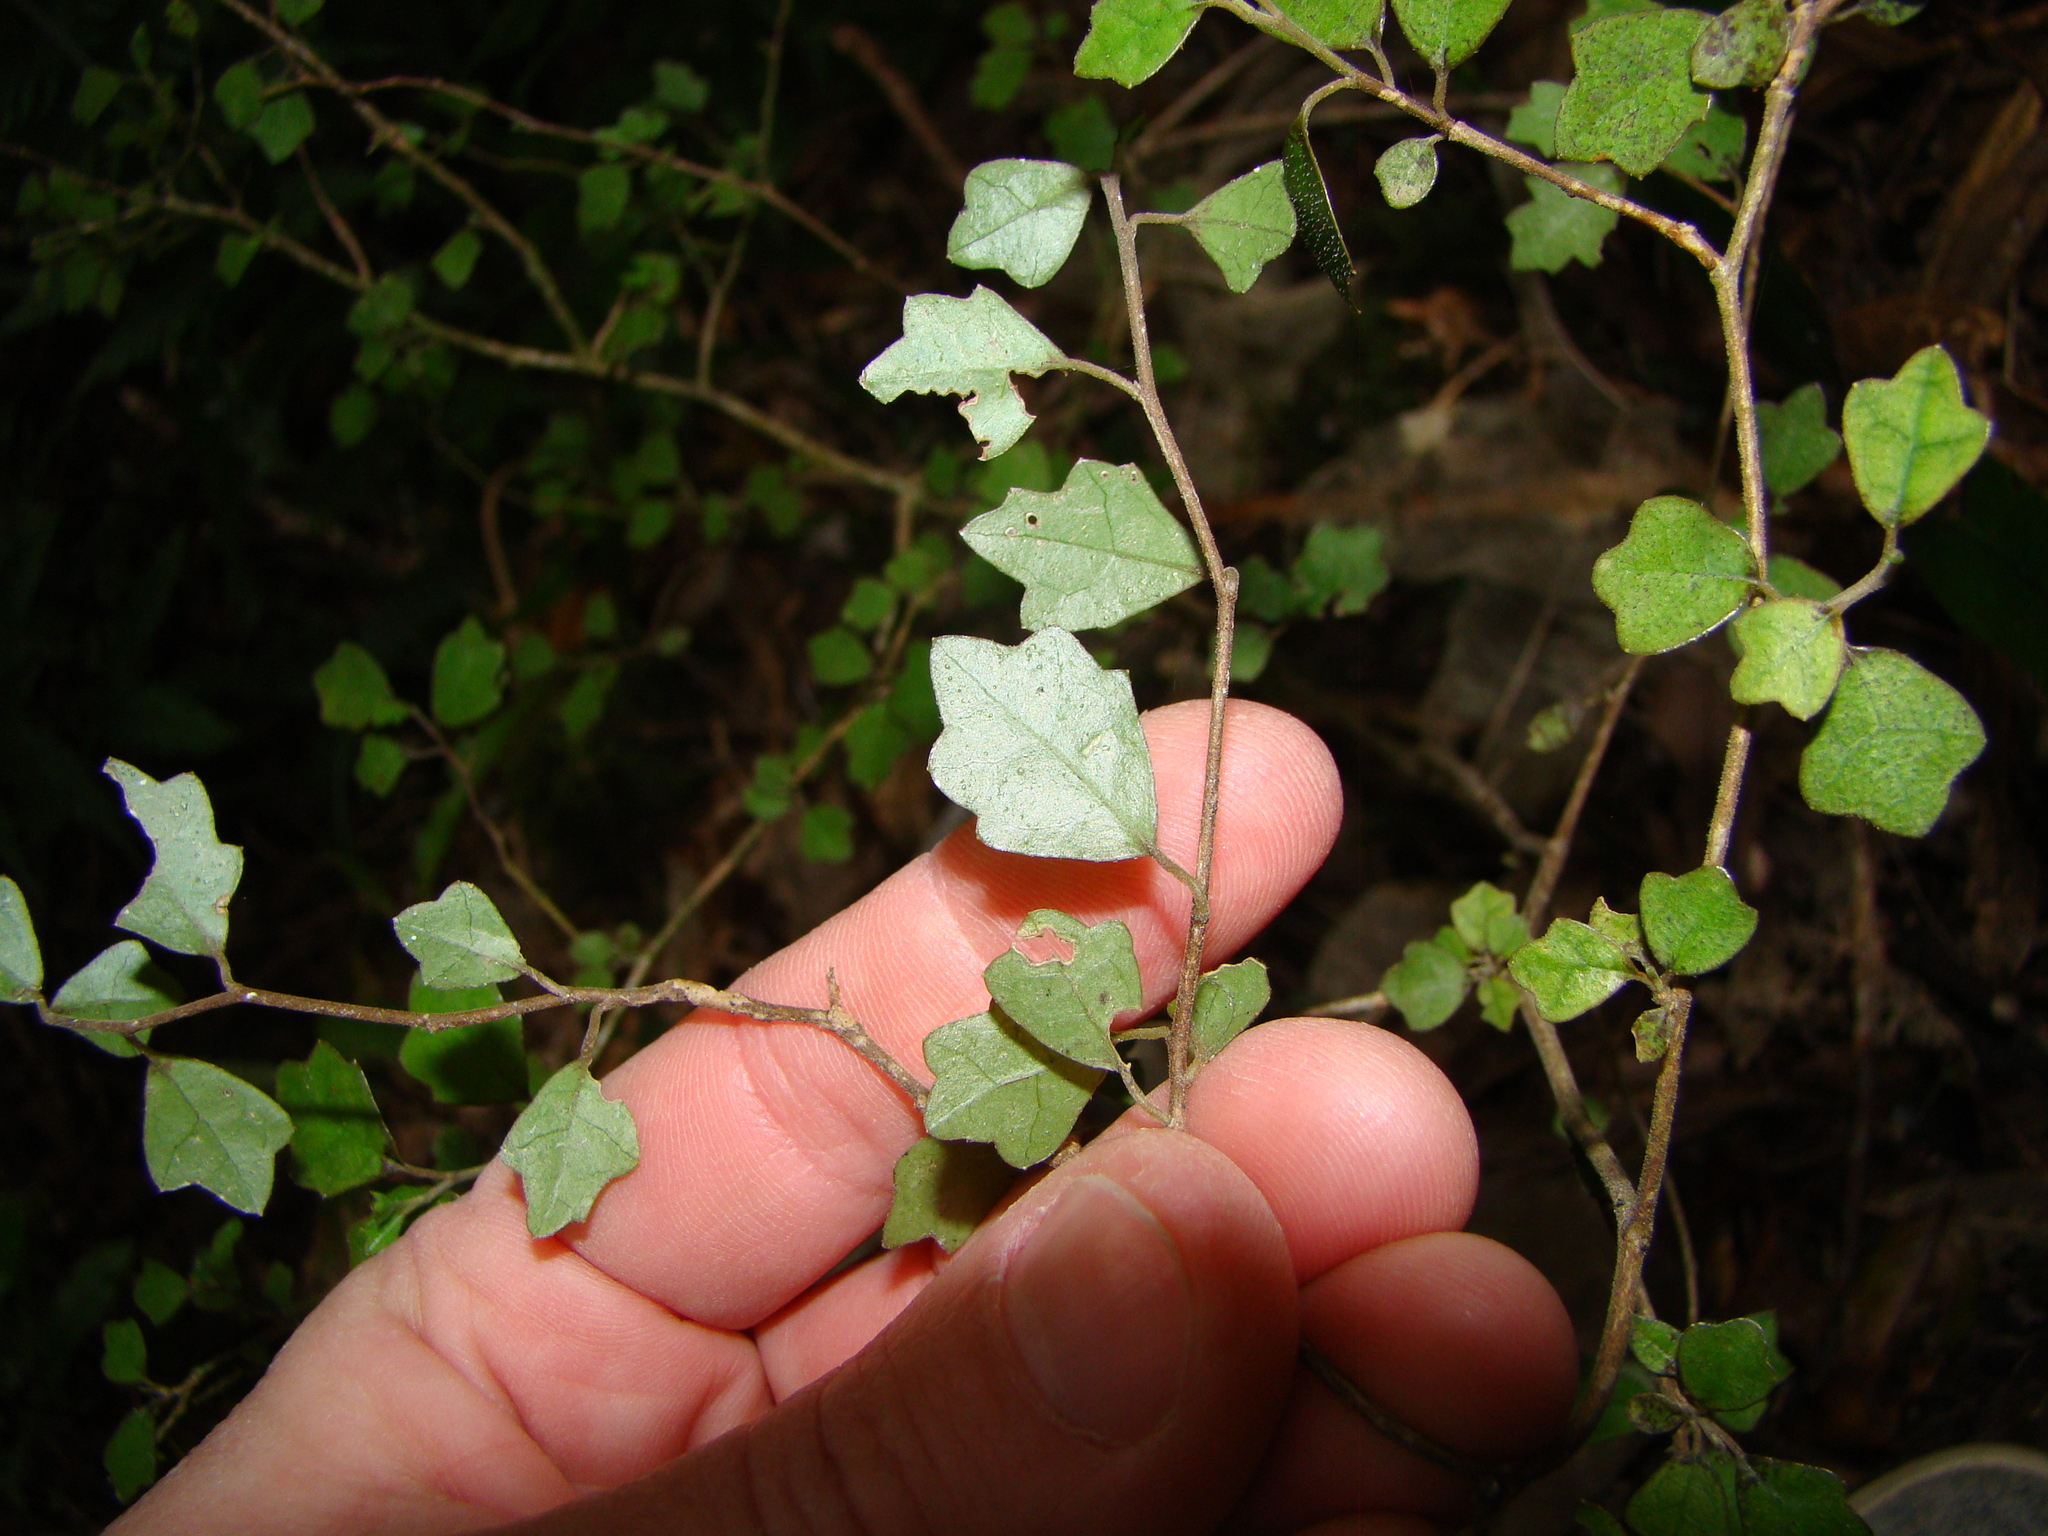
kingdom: Plantae
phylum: Tracheophyta
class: Magnoliopsida
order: Apiales
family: Pennantiaceae
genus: Pennantia
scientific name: Pennantia corymbosa
